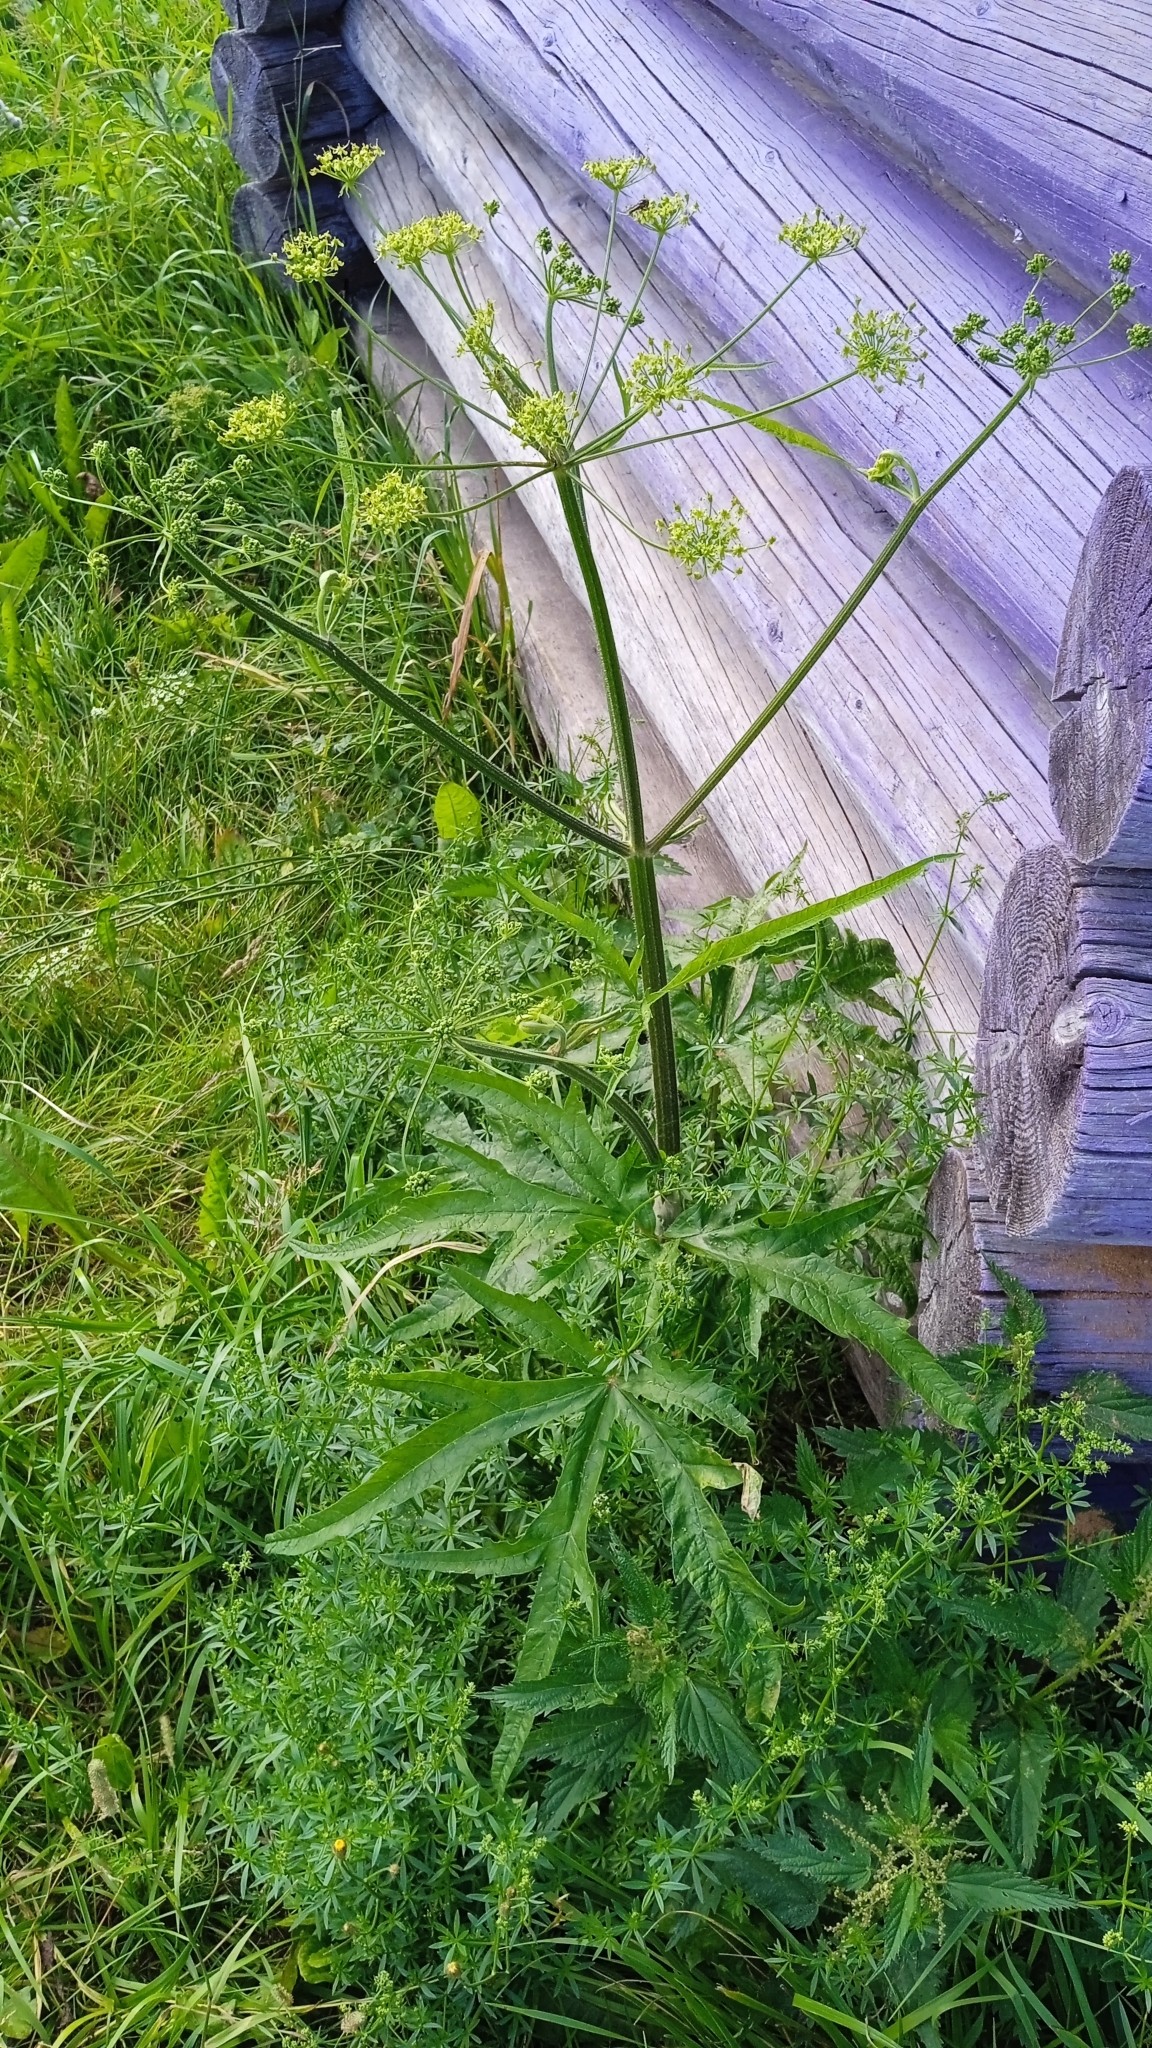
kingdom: Plantae
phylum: Tracheophyta
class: Magnoliopsida
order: Apiales
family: Apiaceae
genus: Heracleum
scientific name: Heracleum sphondylium
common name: Hogweed
